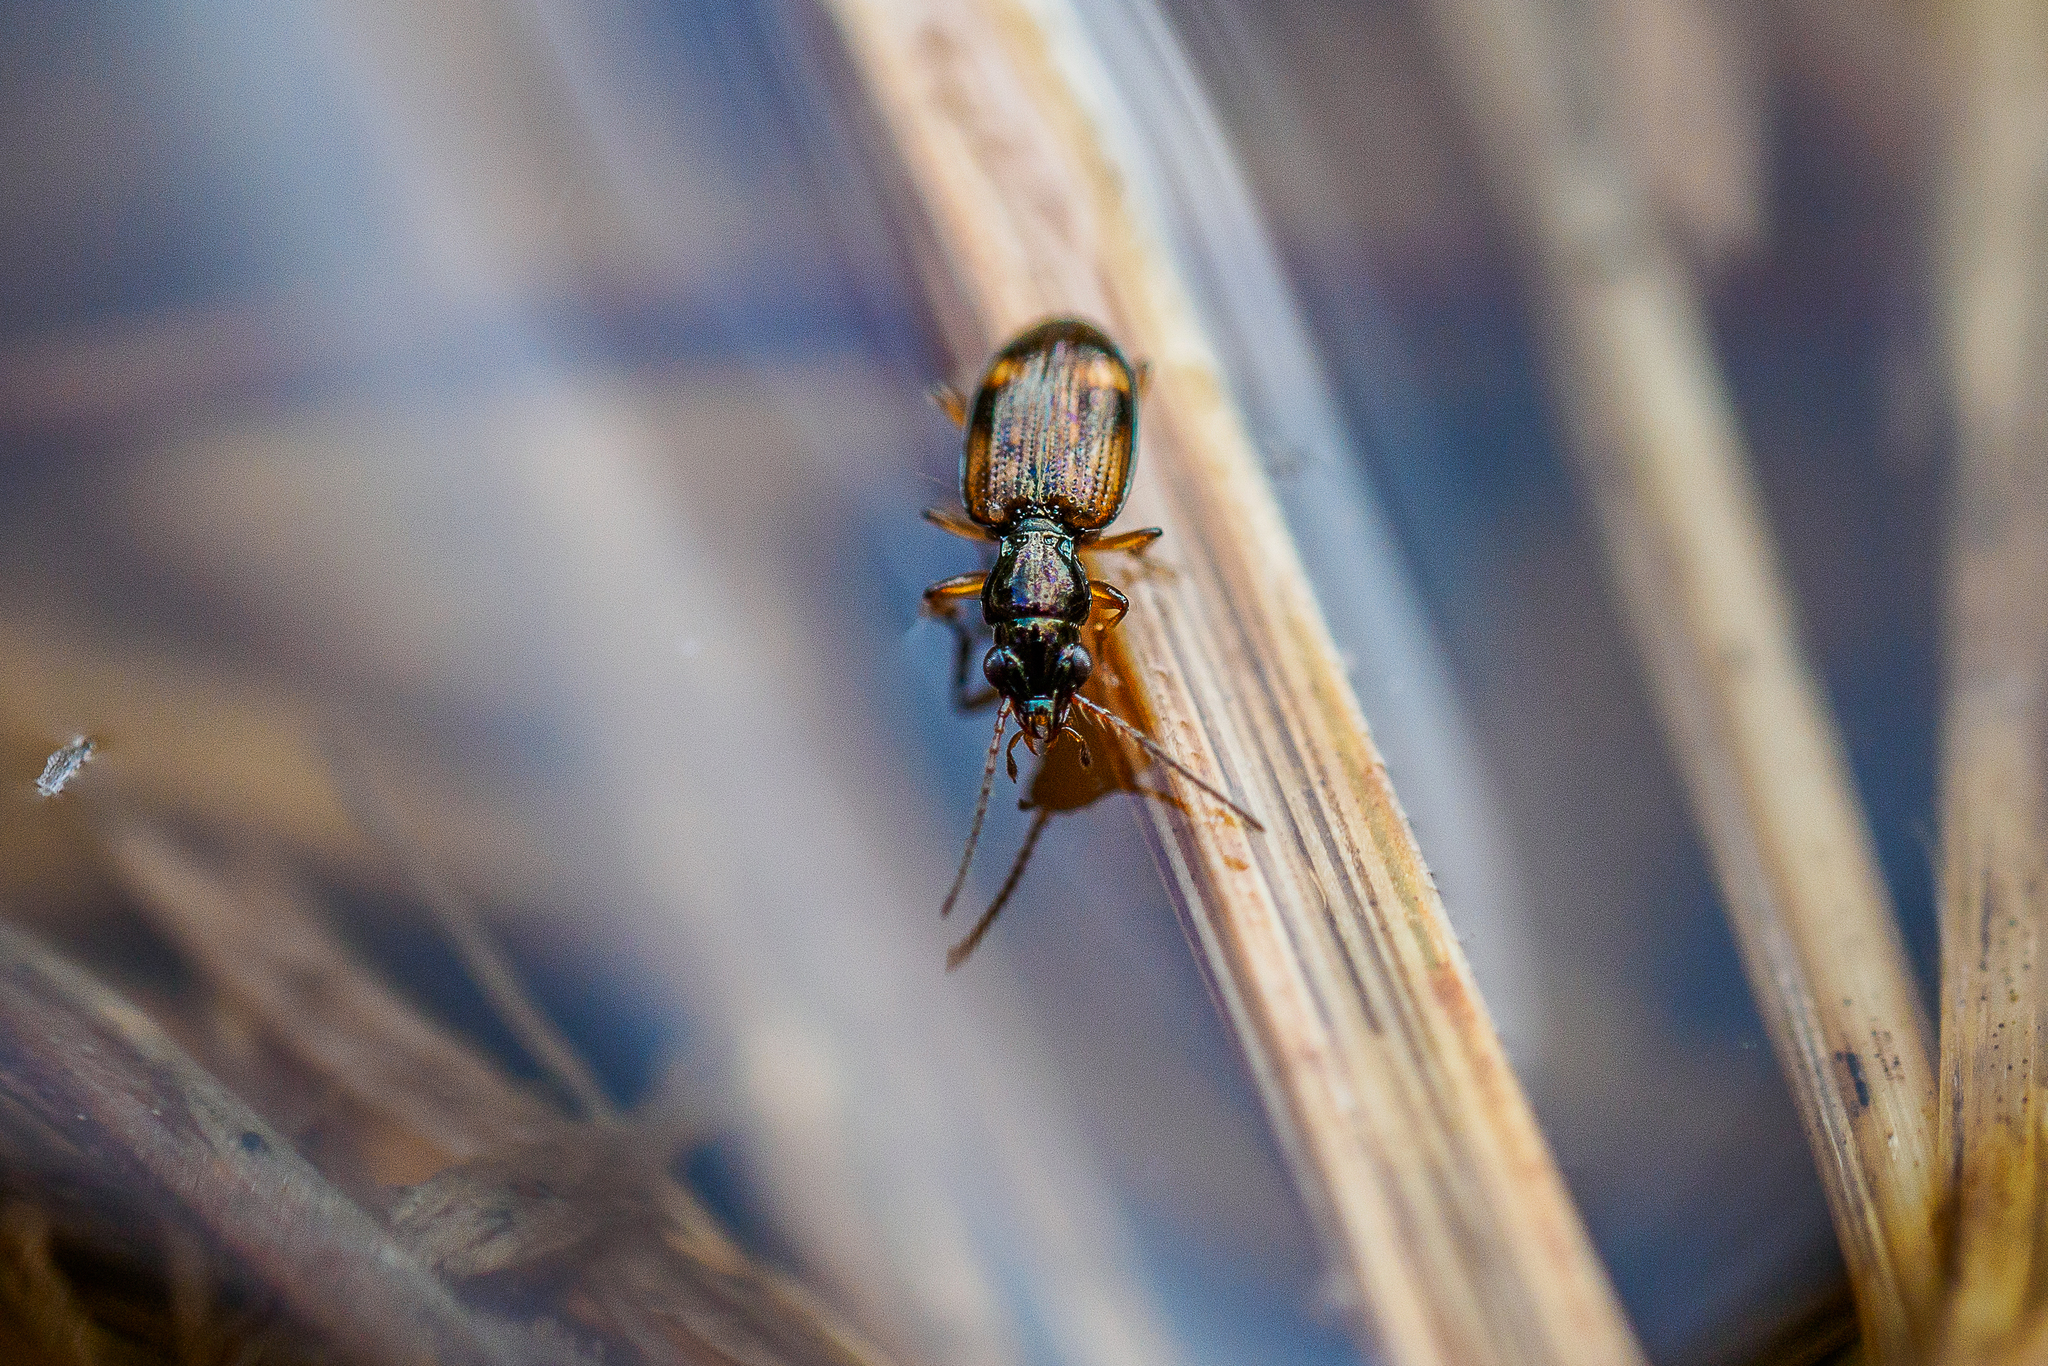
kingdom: Animalia
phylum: Arthropoda
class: Insecta
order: Coleoptera
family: Carabidae
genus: Bembidion
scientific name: Bembidion articulatum
